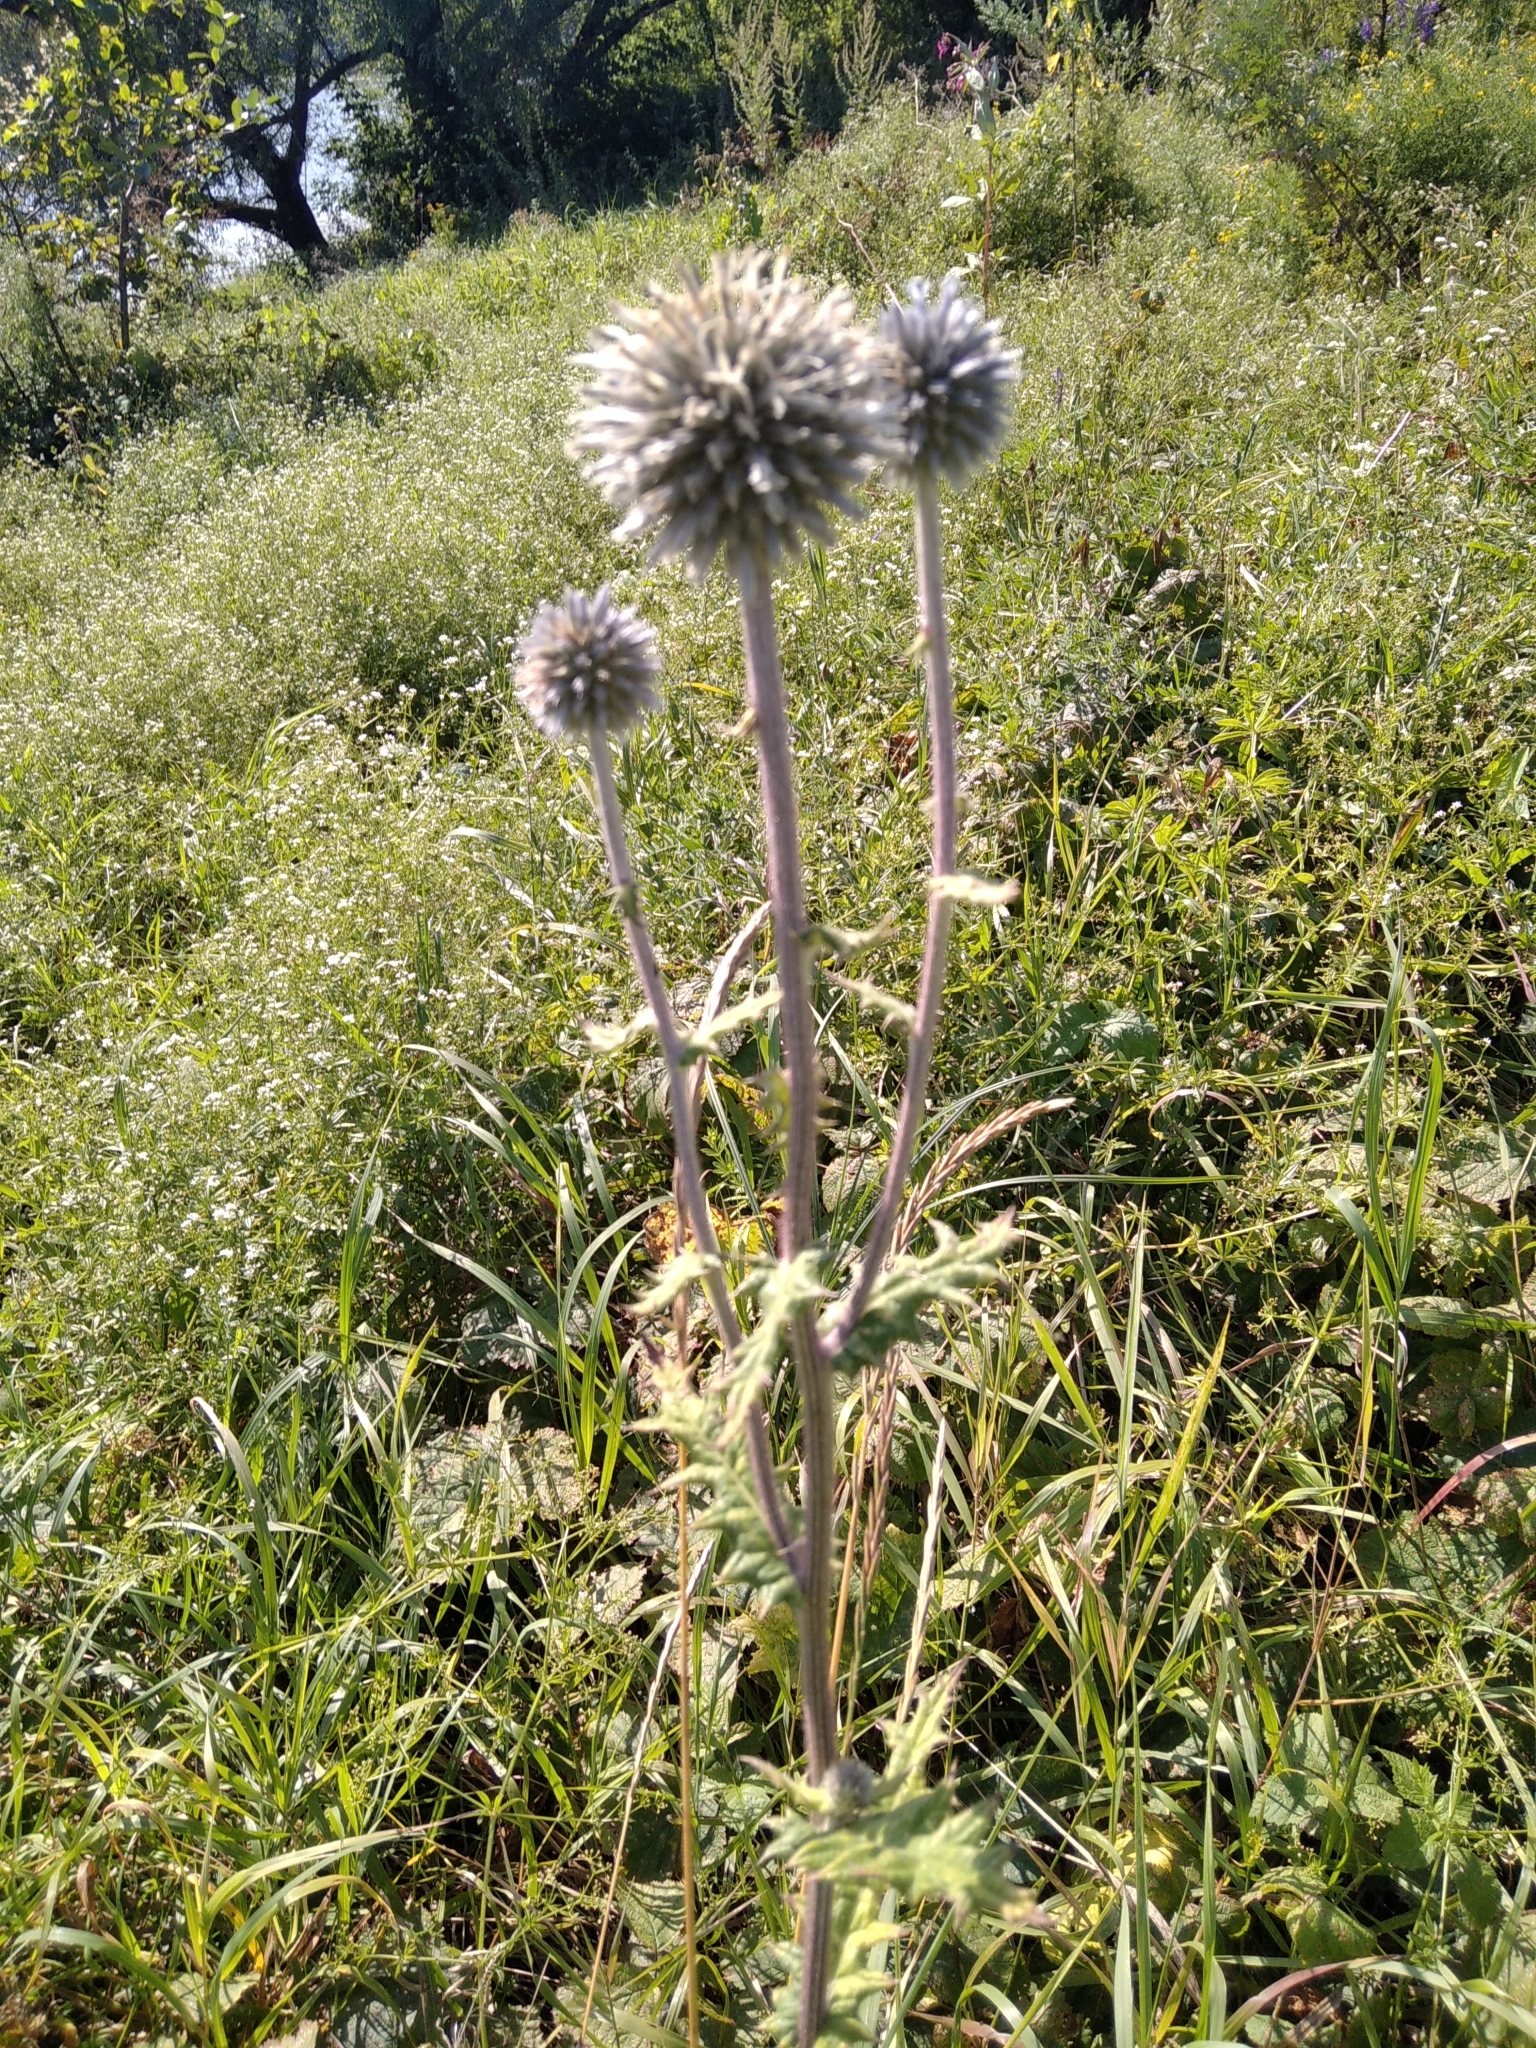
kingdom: Plantae
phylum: Tracheophyta
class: Magnoliopsida
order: Asterales
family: Asteraceae
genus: Echinops
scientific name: Echinops sphaerocephalus
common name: Glandular globe-thistle
